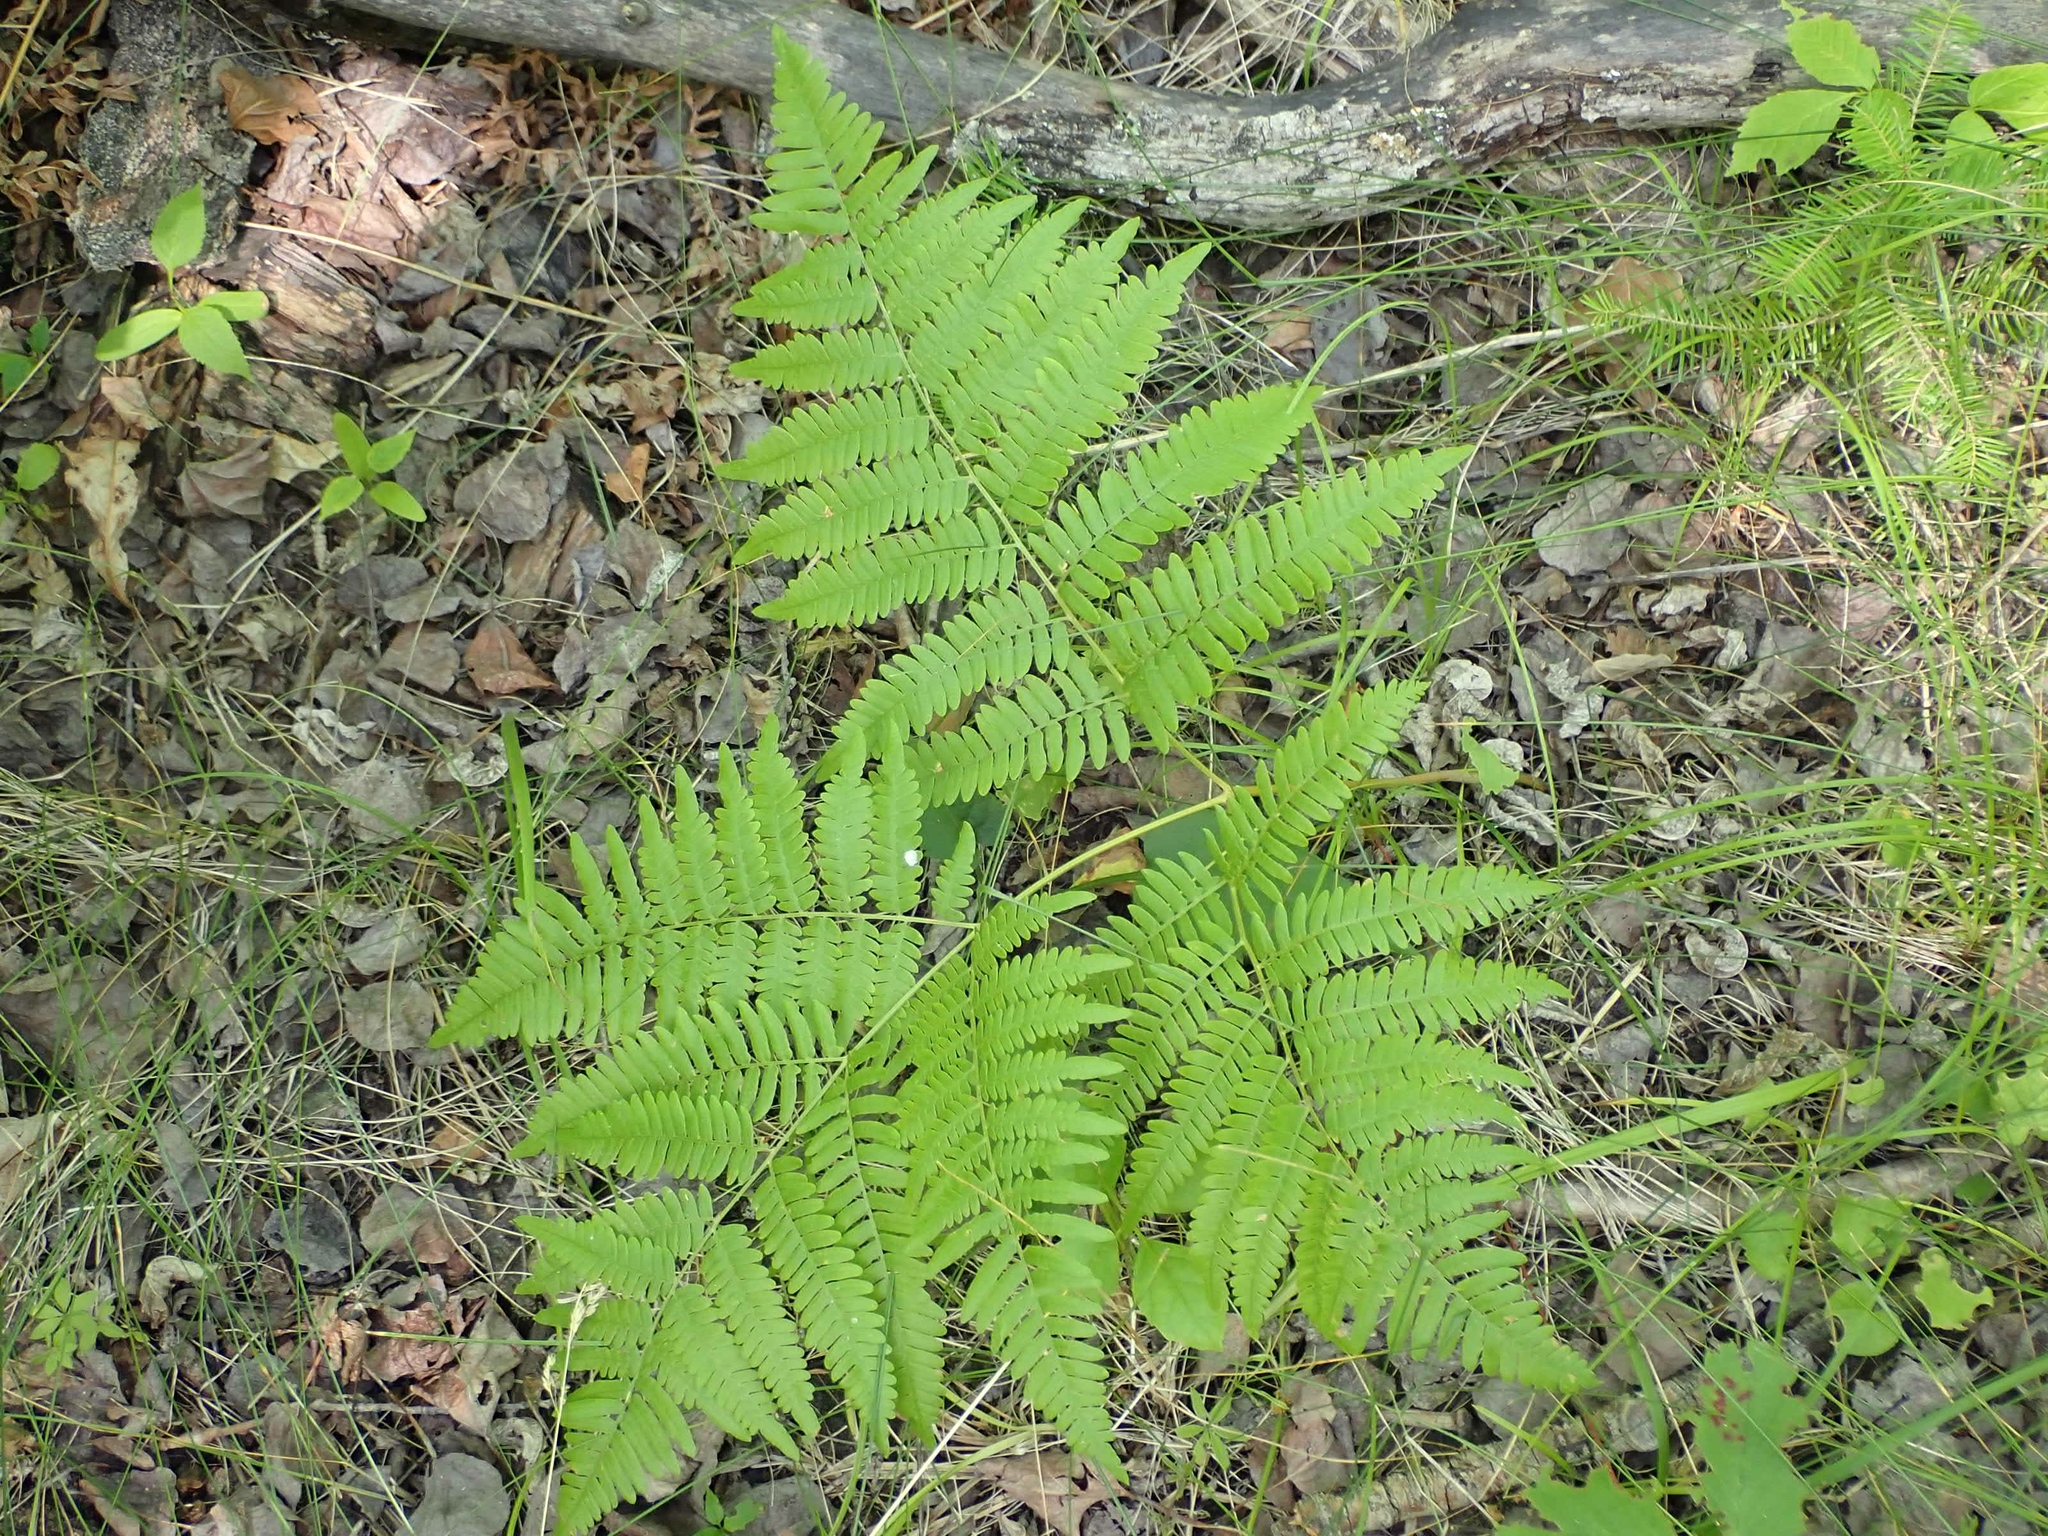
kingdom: Plantae
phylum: Tracheophyta
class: Polypodiopsida
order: Polypodiales
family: Dennstaedtiaceae
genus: Pteridium
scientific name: Pteridium aquilinum
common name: Bracken
